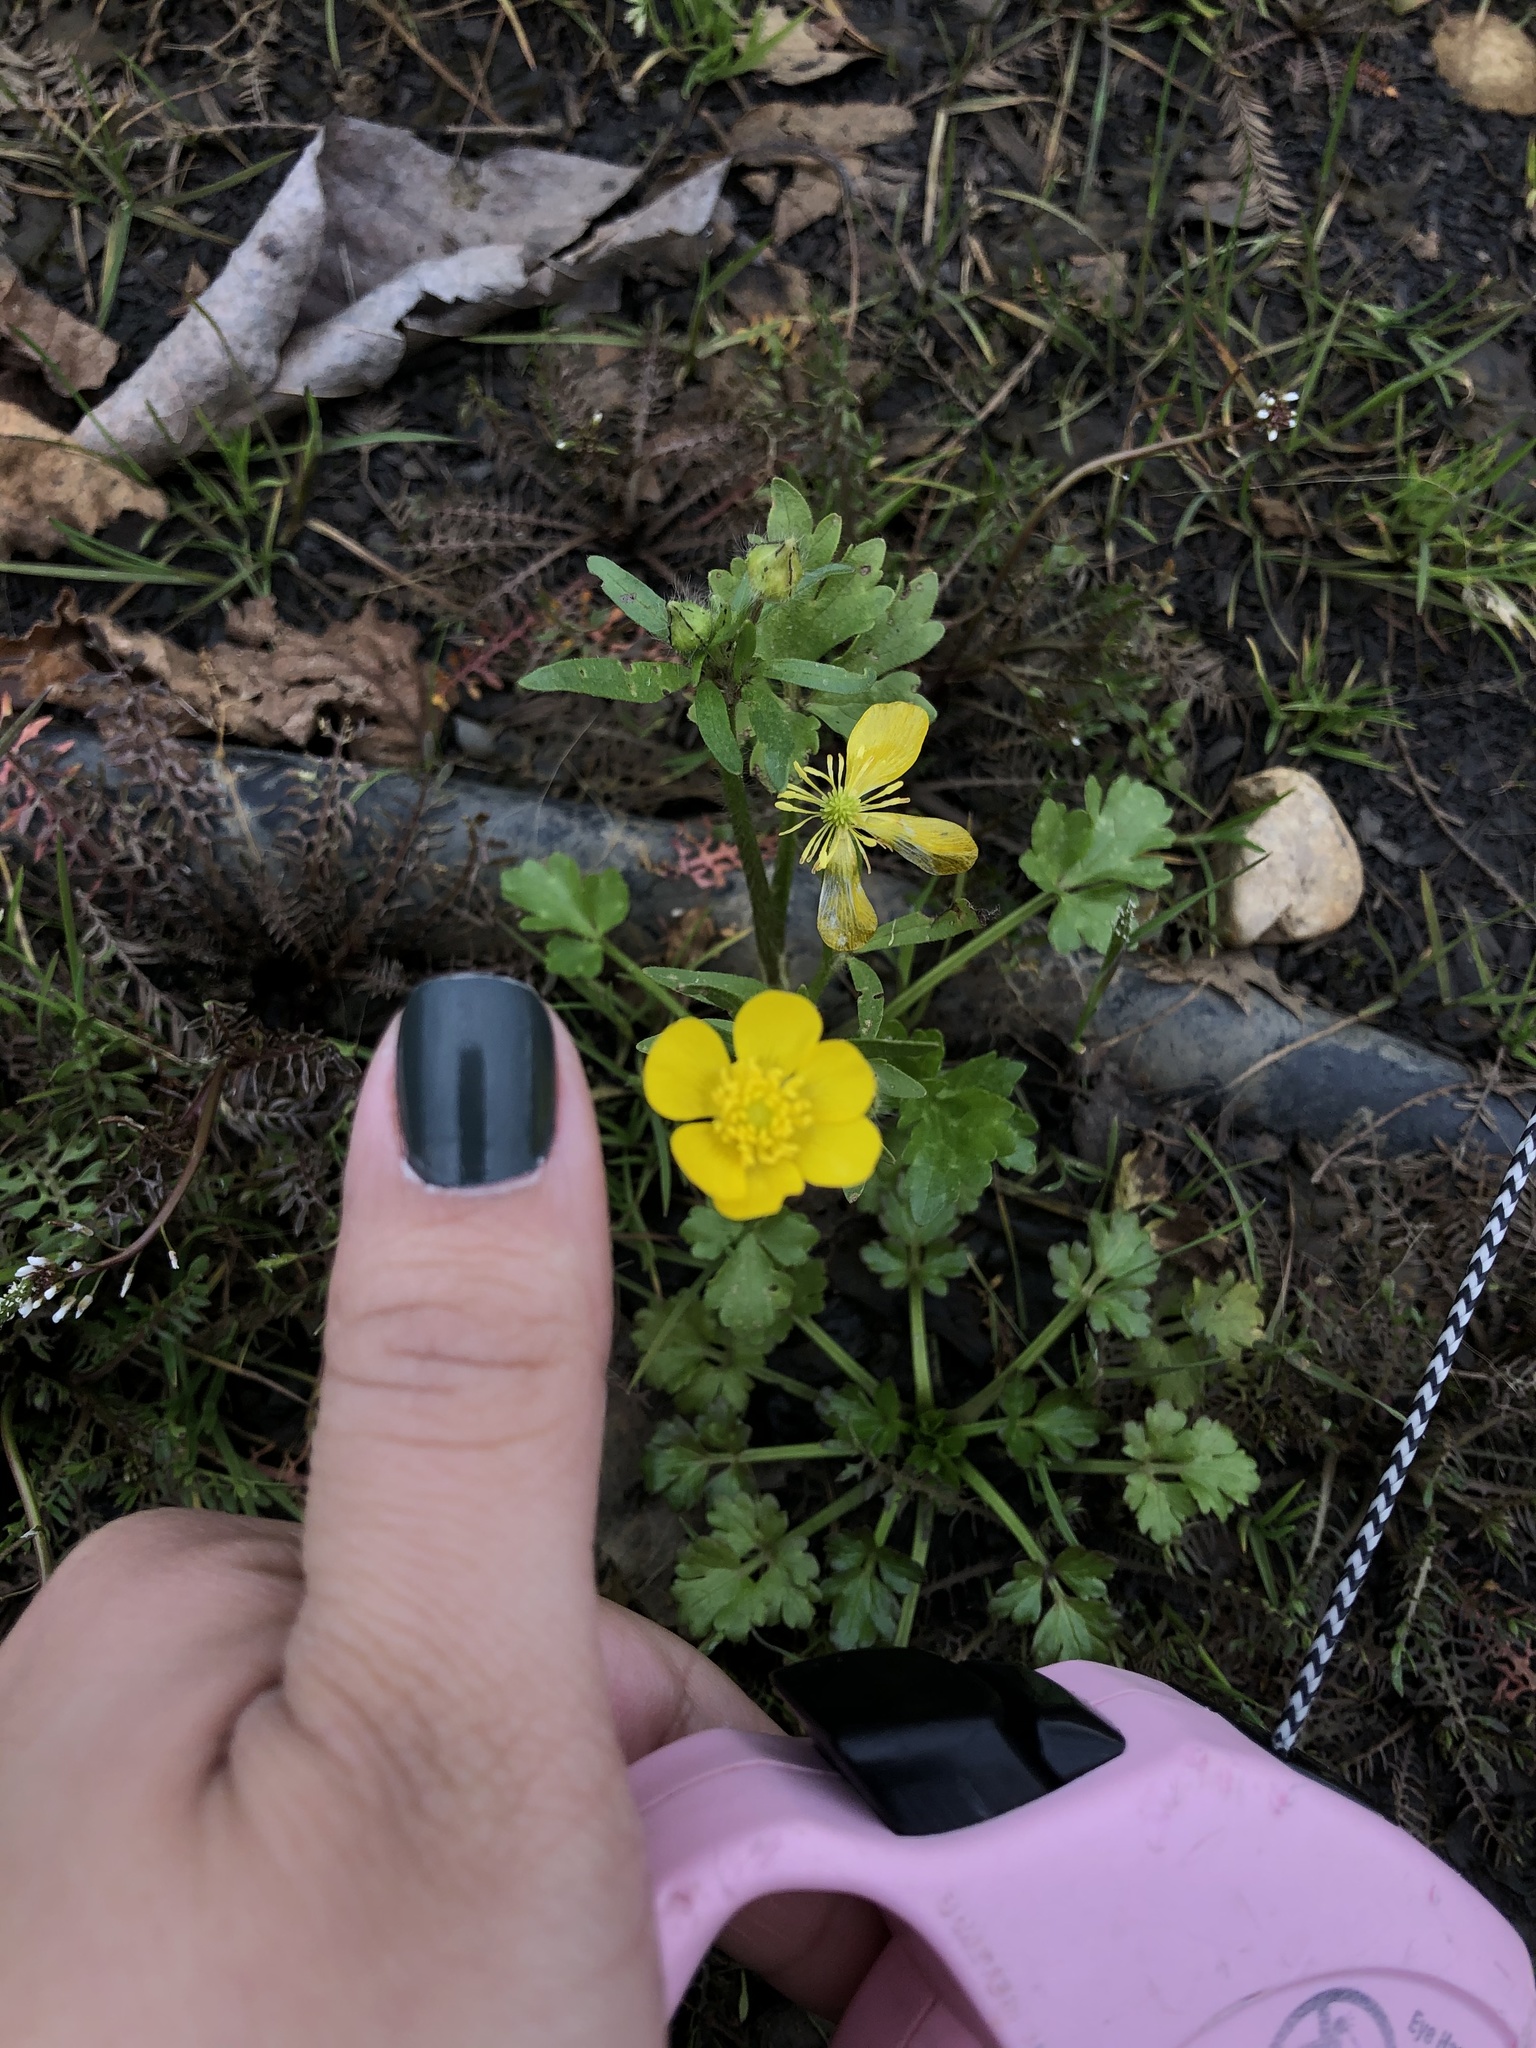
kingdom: Plantae
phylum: Tracheophyta
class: Magnoliopsida
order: Ranunculales
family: Ranunculaceae
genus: Ranunculus
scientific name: Ranunculus sardous
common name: Hairy buttercup
